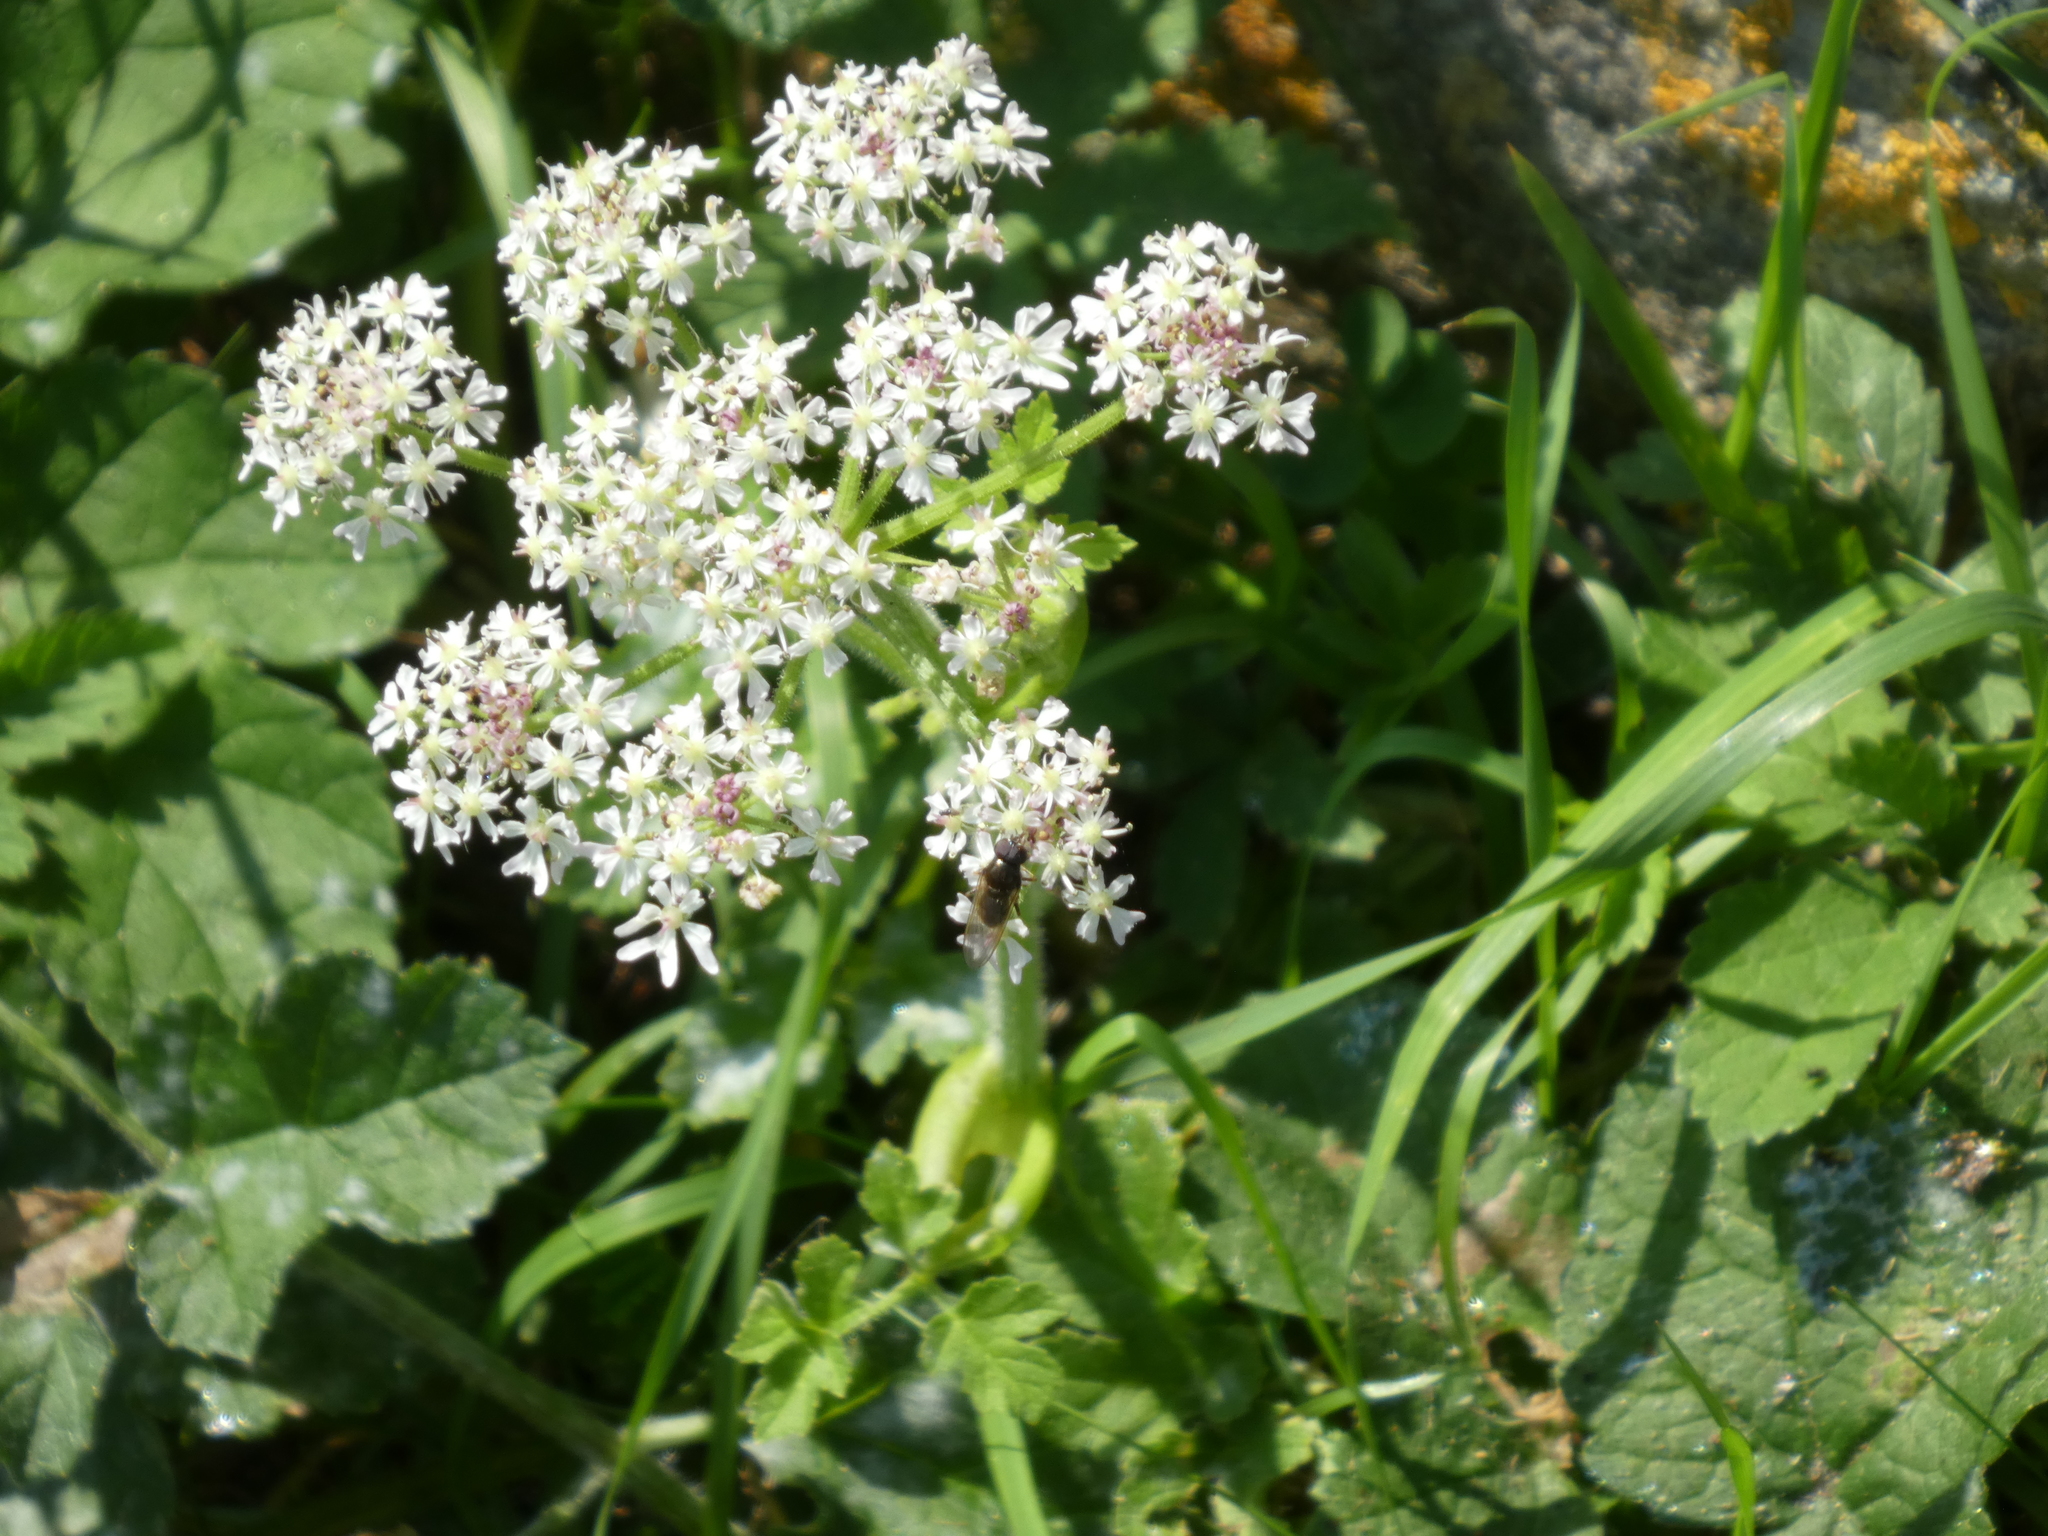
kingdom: Plantae
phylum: Tracheophyta
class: Magnoliopsida
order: Apiales
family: Apiaceae
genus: Heracleum
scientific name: Heracleum sphondylium
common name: Hogweed
